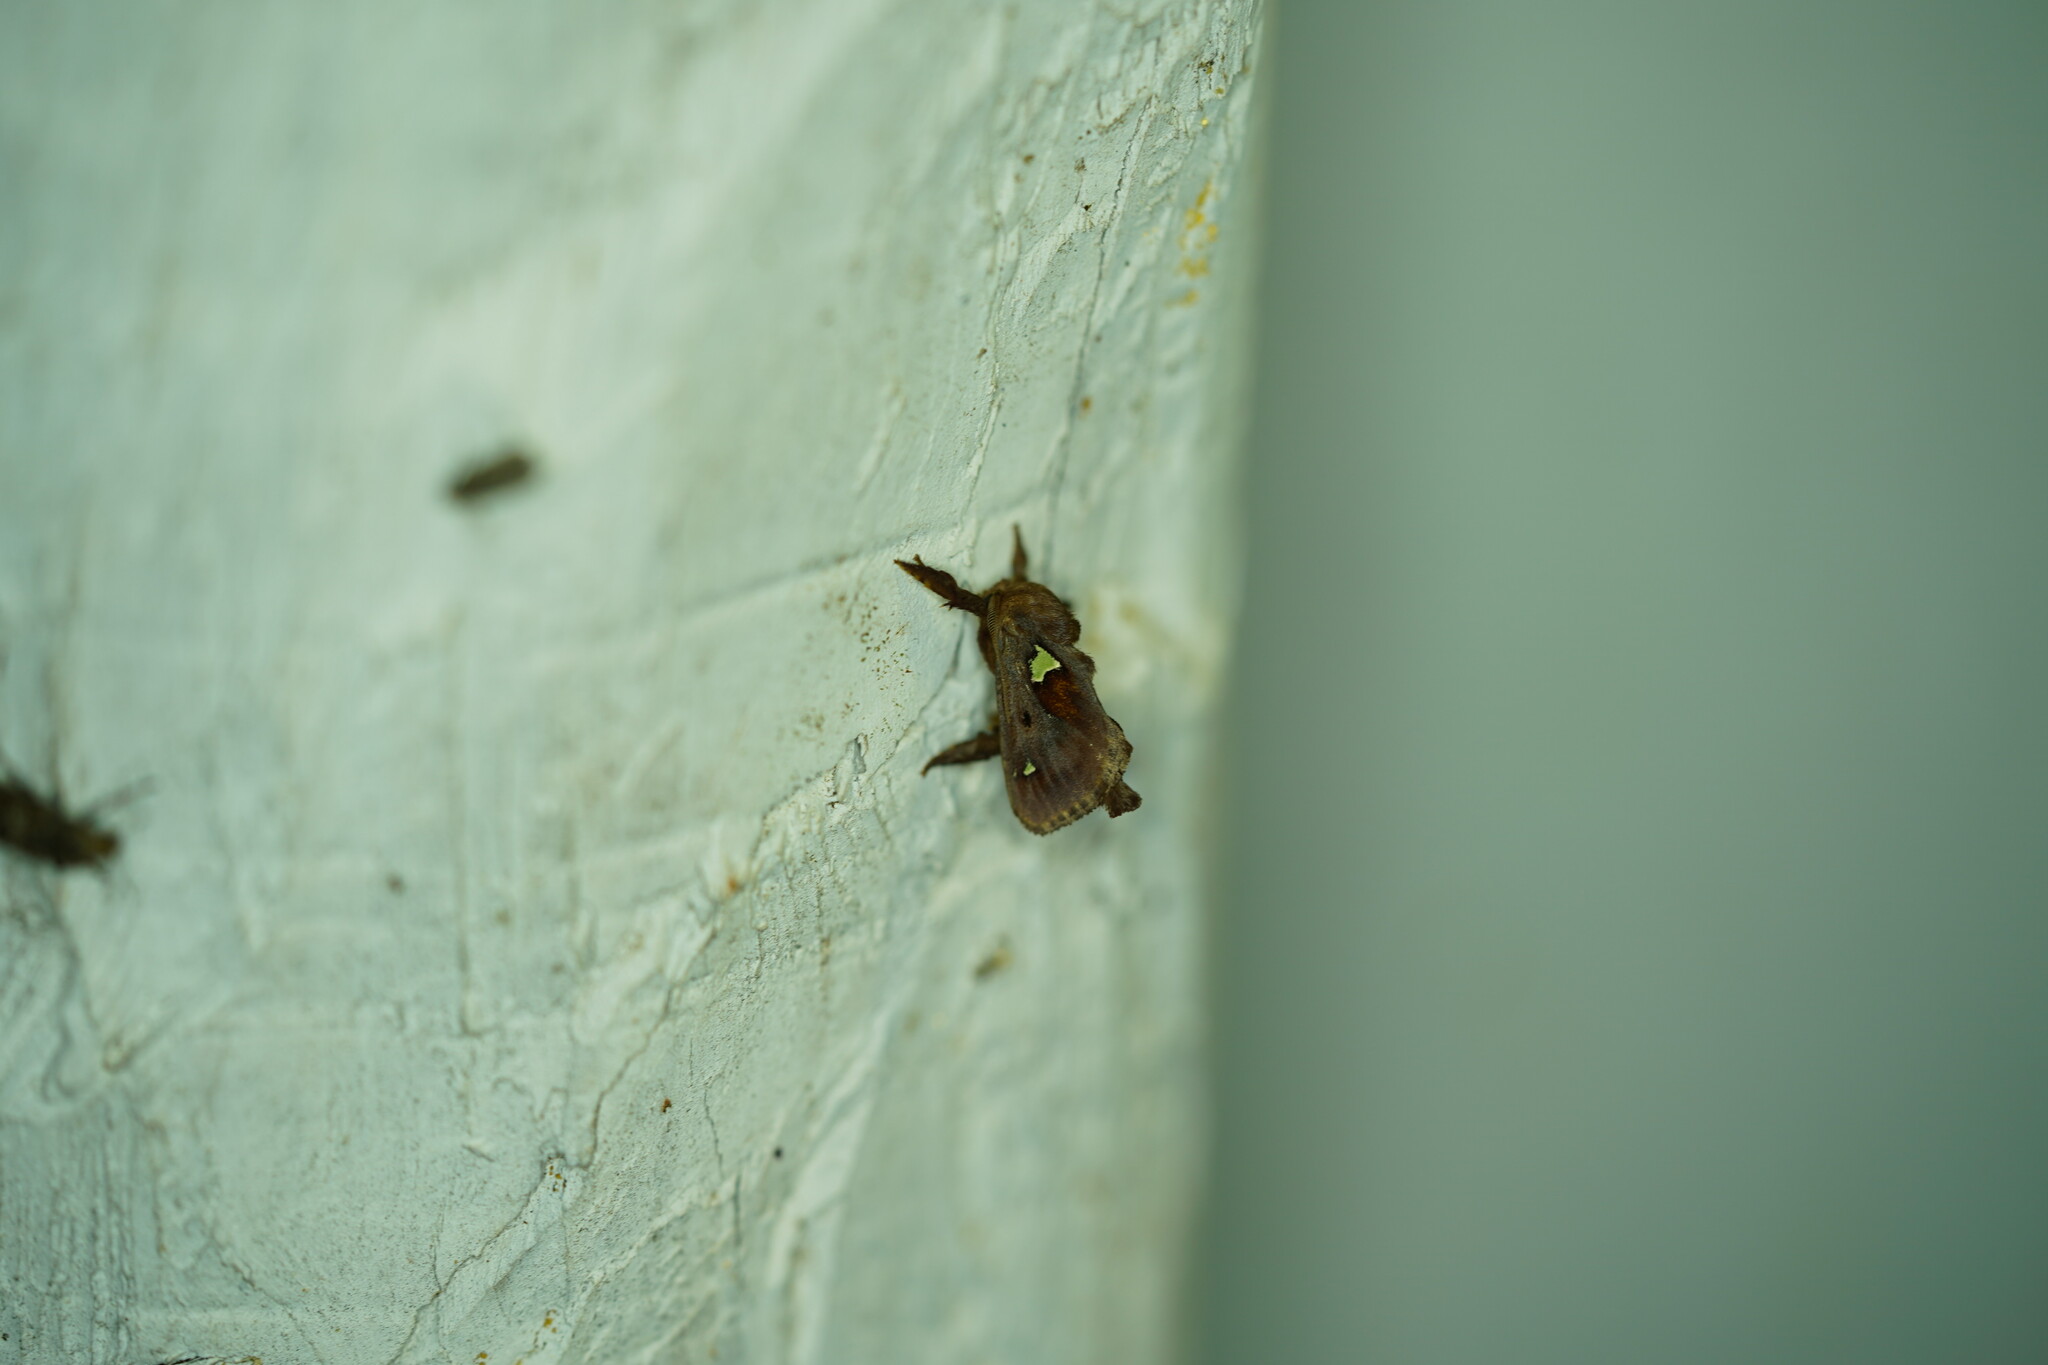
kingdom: Animalia
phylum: Arthropoda
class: Insecta
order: Lepidoptera
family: Limacodidae
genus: Euclea
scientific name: Euclea delphinii
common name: Spiny oak-slug moth
